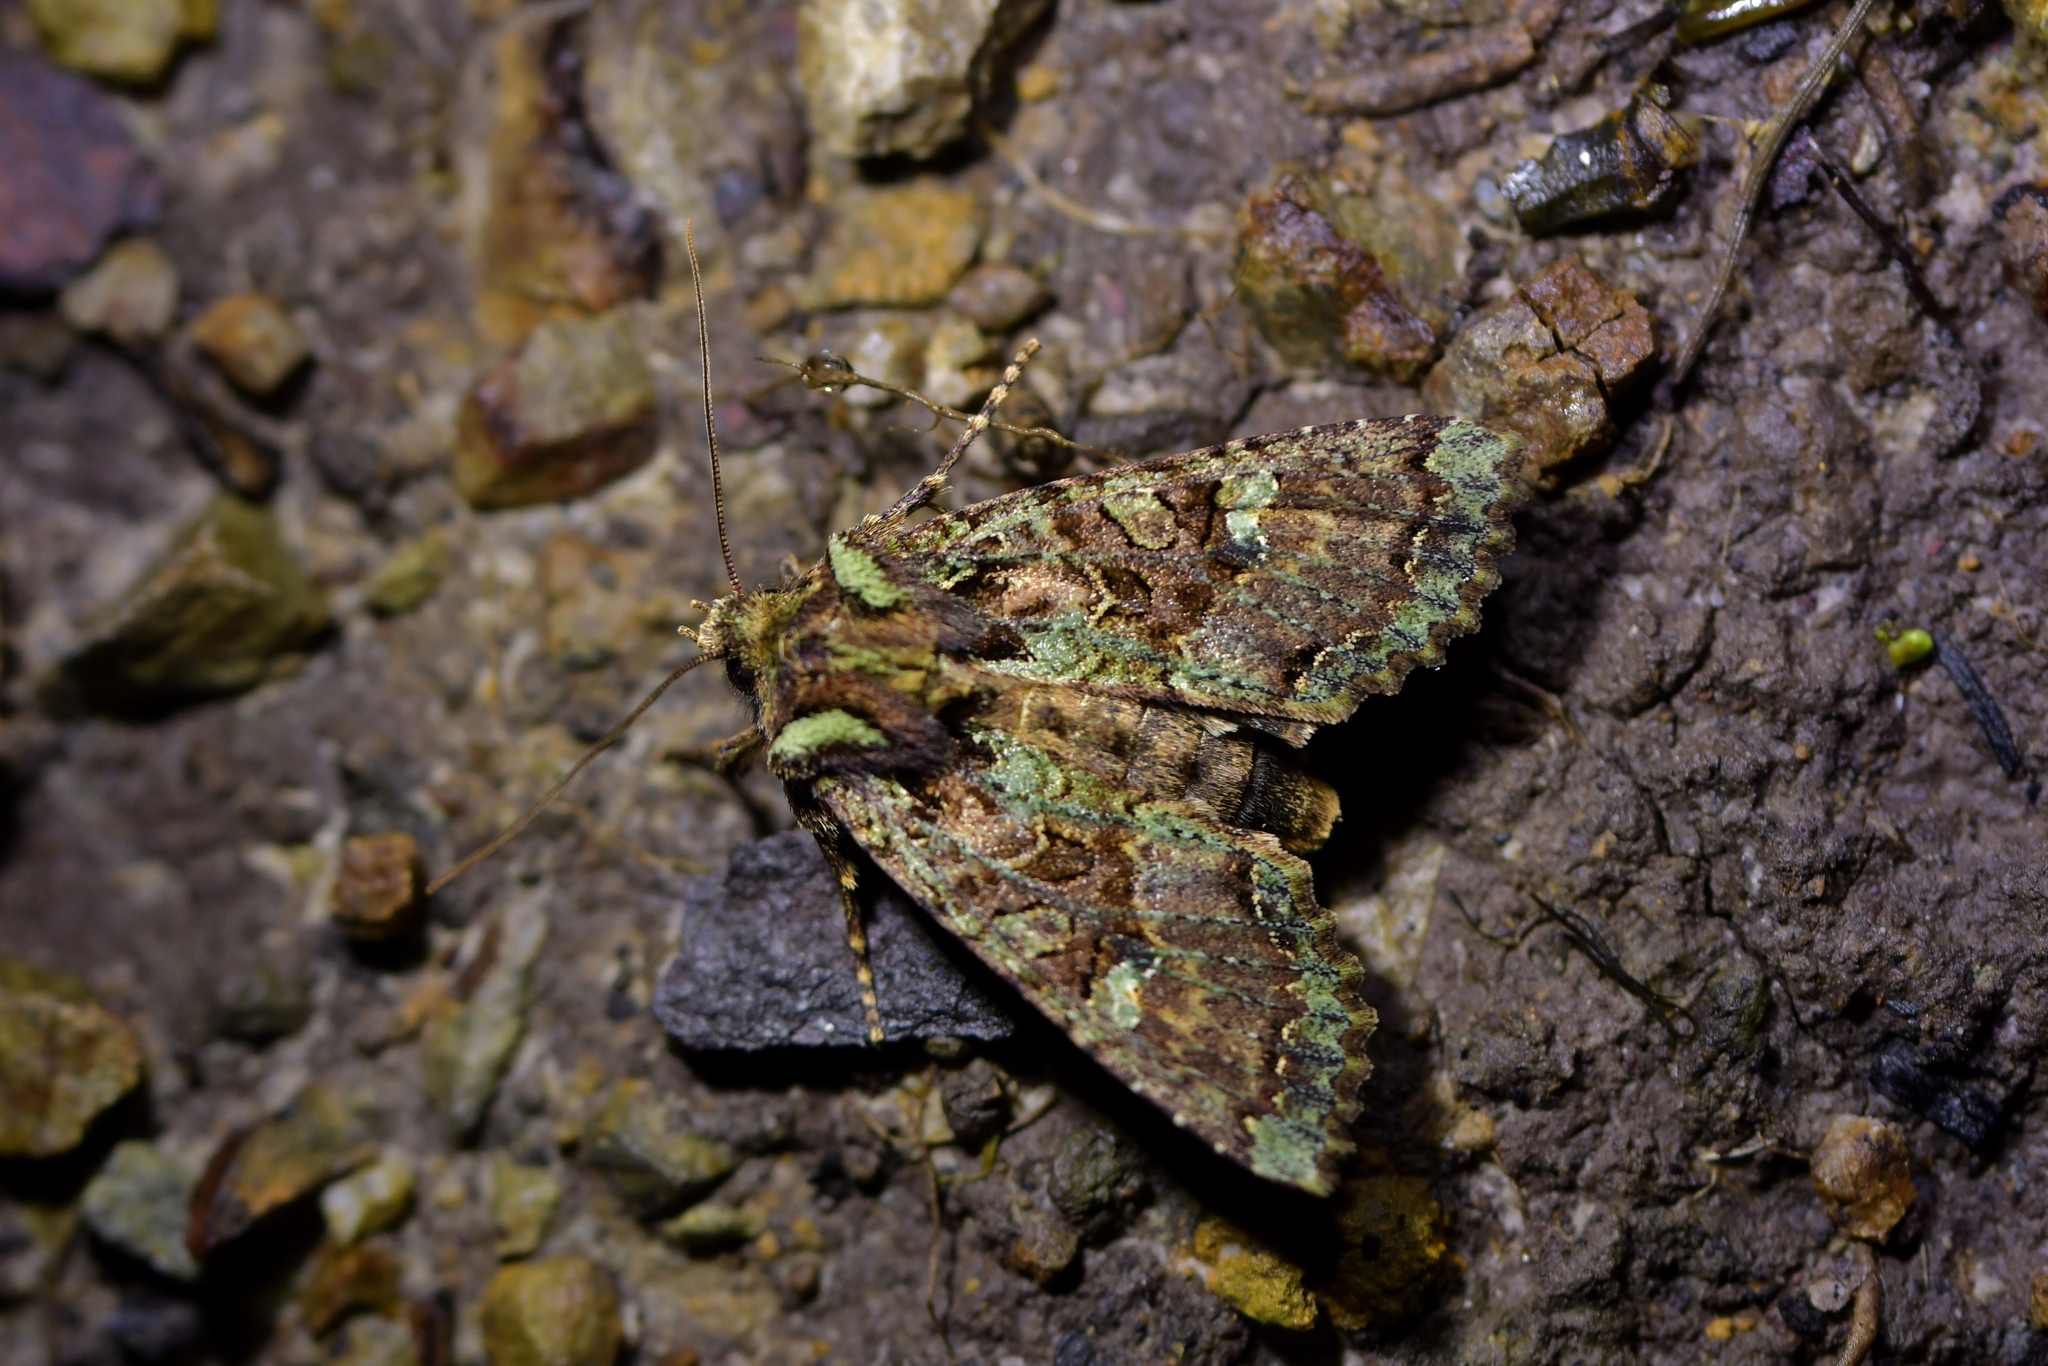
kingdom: Animalia
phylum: Arthropoda
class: Insecta
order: Lepidoptera
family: Noctuidae
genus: Meterana
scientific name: Meterana
